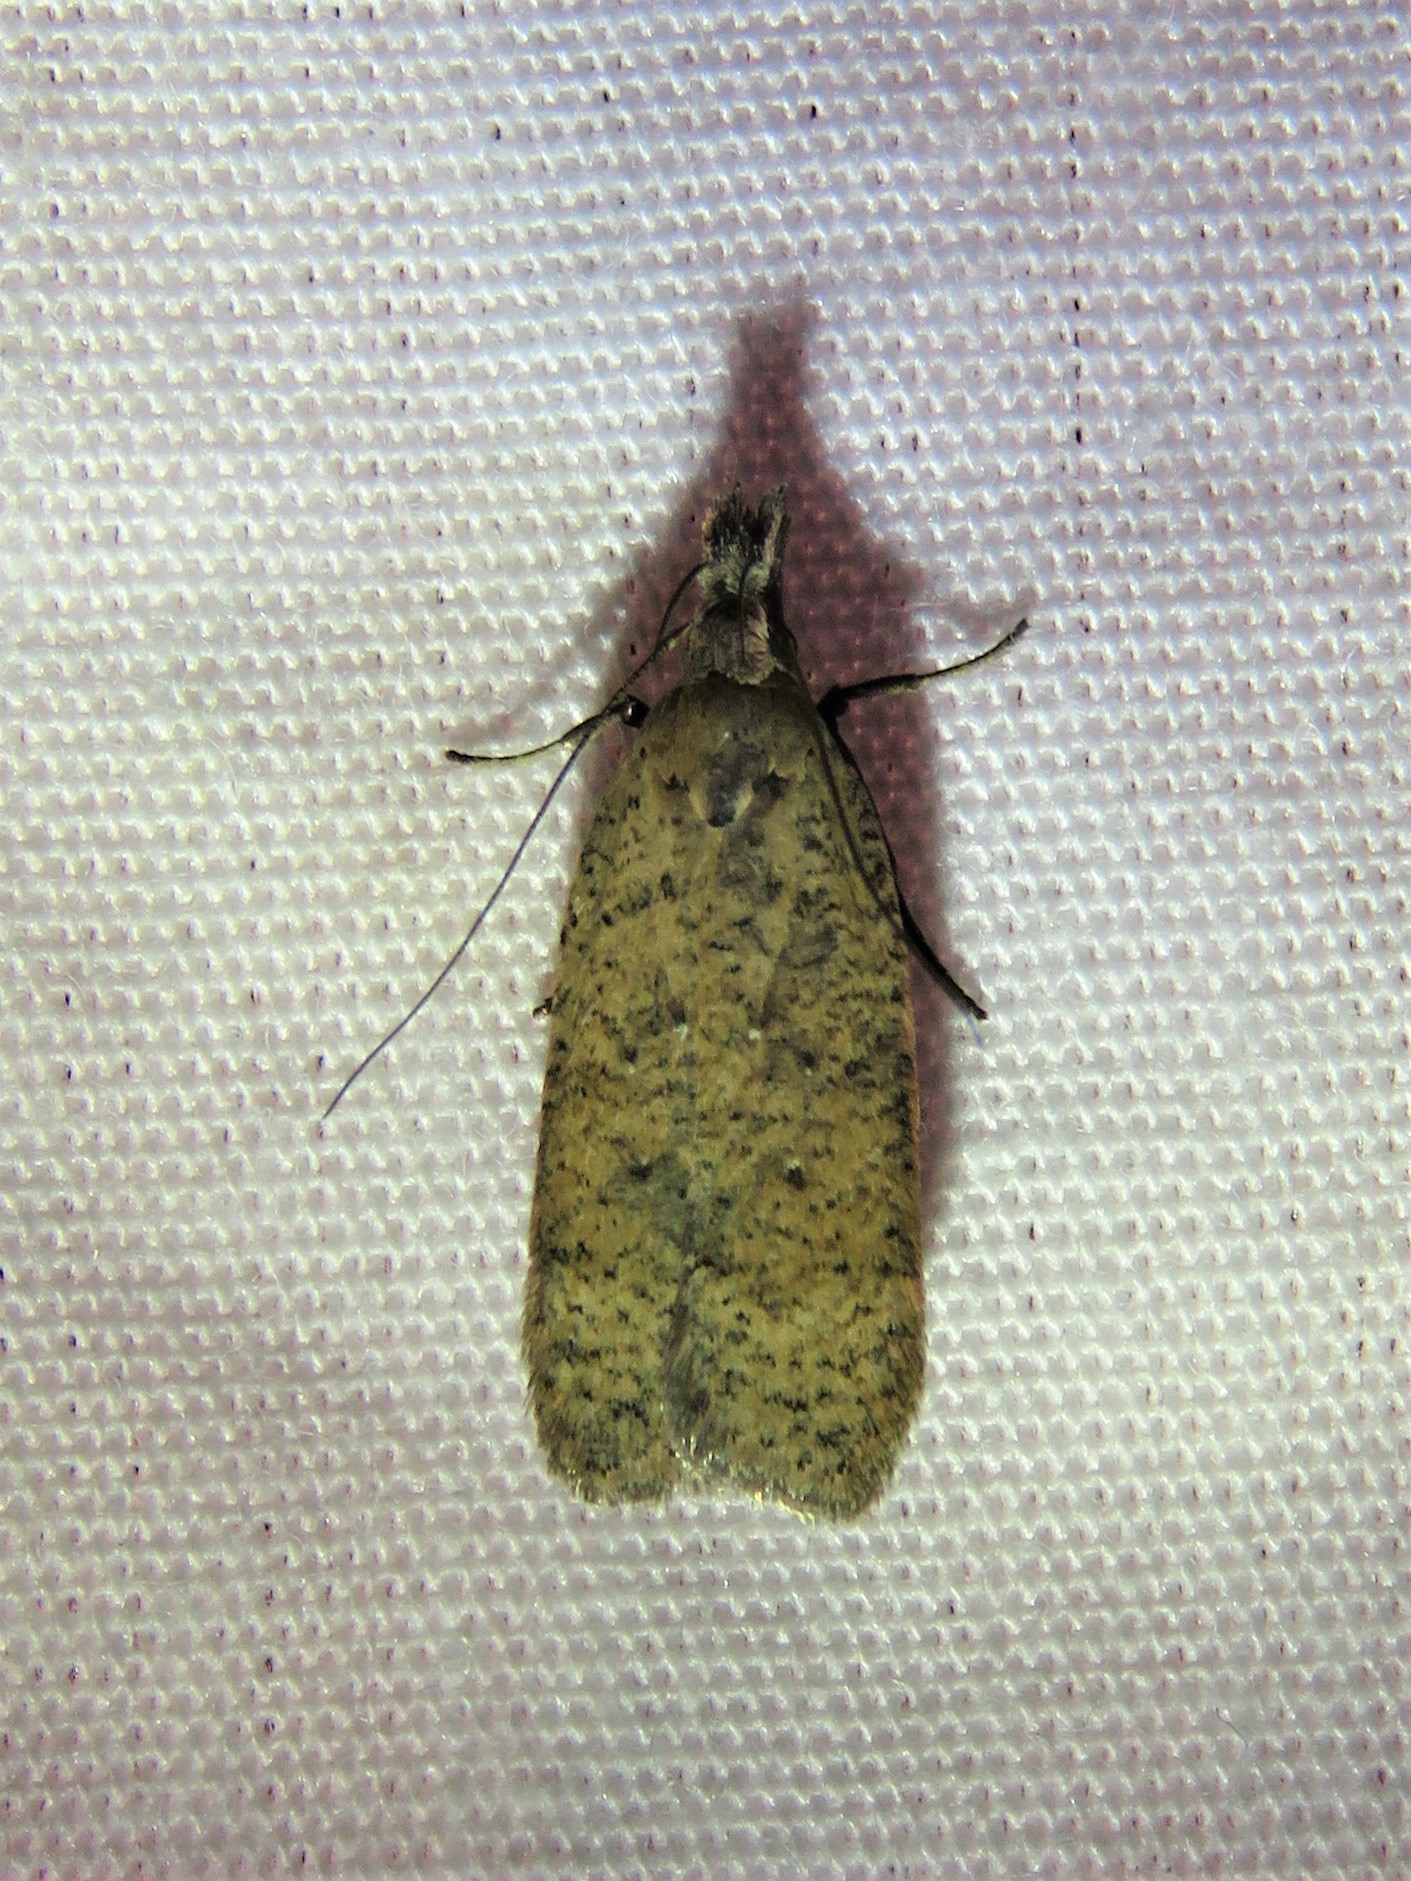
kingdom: Animalia
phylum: Arthropoda
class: Insecta
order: Lepidoptera
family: Gelechiidae
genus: Dichomeris
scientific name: Dichomeris georgiella
